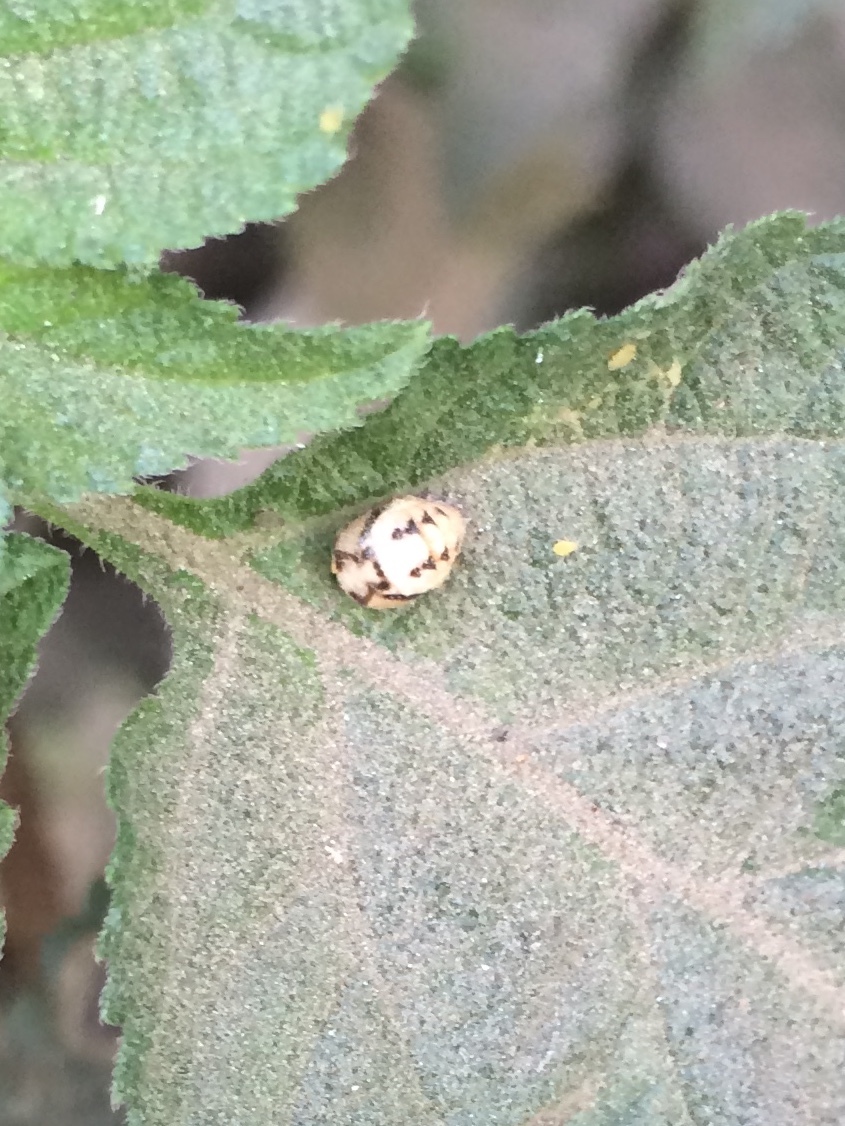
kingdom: Animalia
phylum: Arthropoda
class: Insecta
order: Coleoptera
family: Coccinellidae
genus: Cheilomenes
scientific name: Cheilomenes sexmaculata
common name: Ladybird beetle
